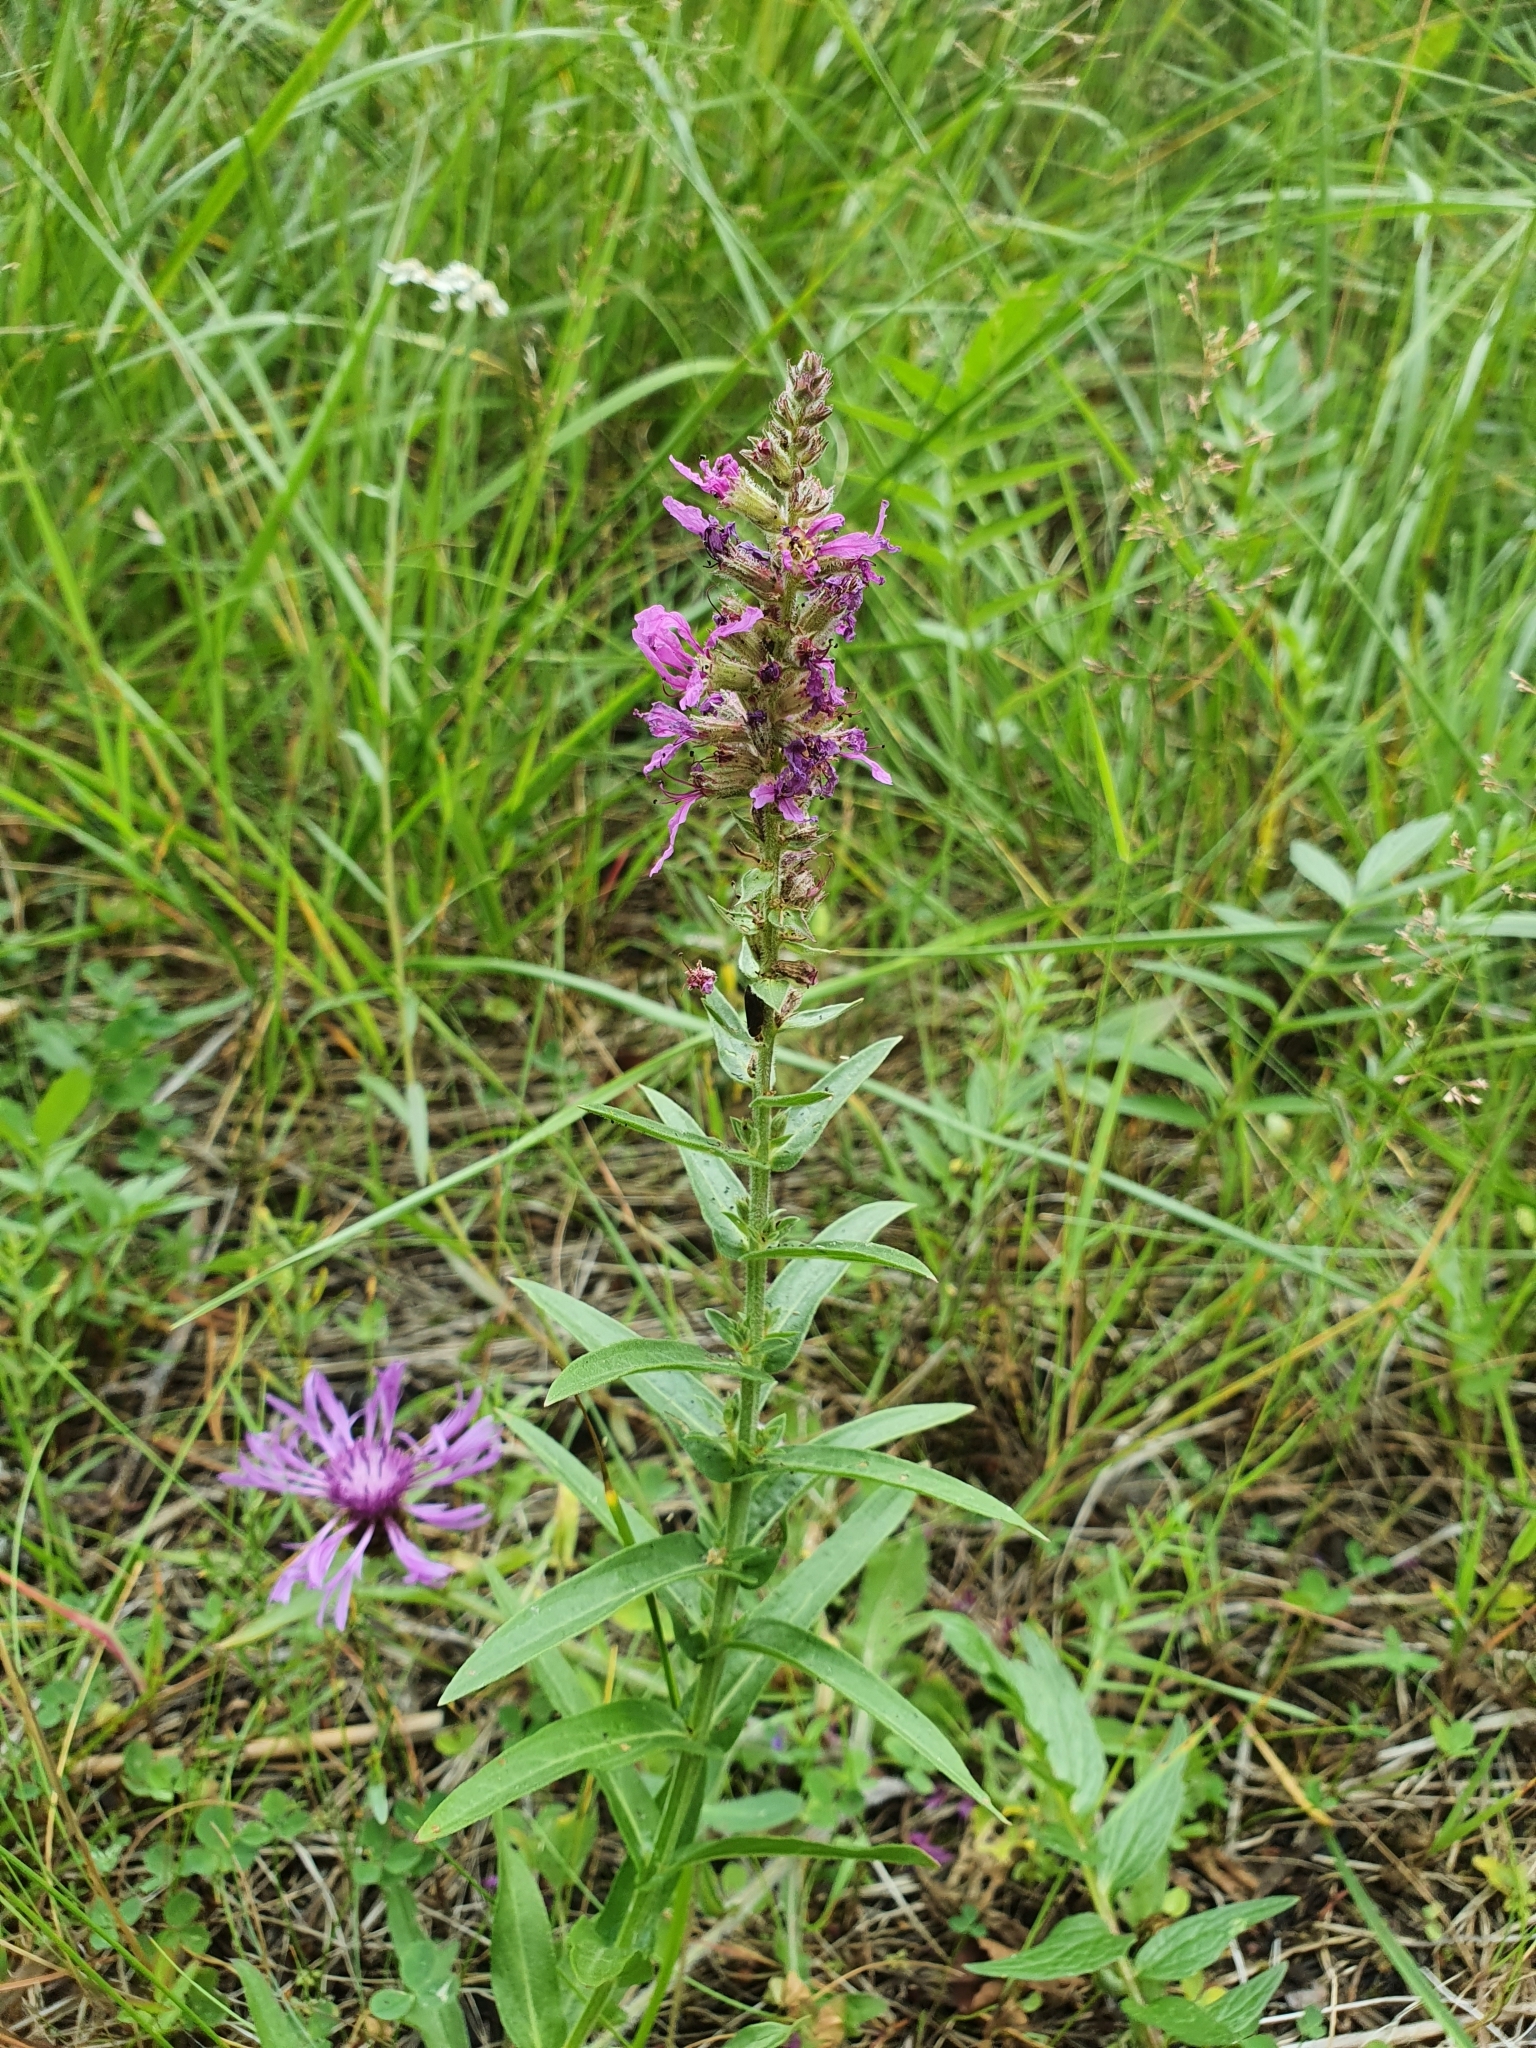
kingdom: Plantae
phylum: Tracheophyta
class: Magnoliopsida
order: Myrtales
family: Lythraceae
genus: Lythrum
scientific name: Lythrum salicaria
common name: Purple loosestrife
